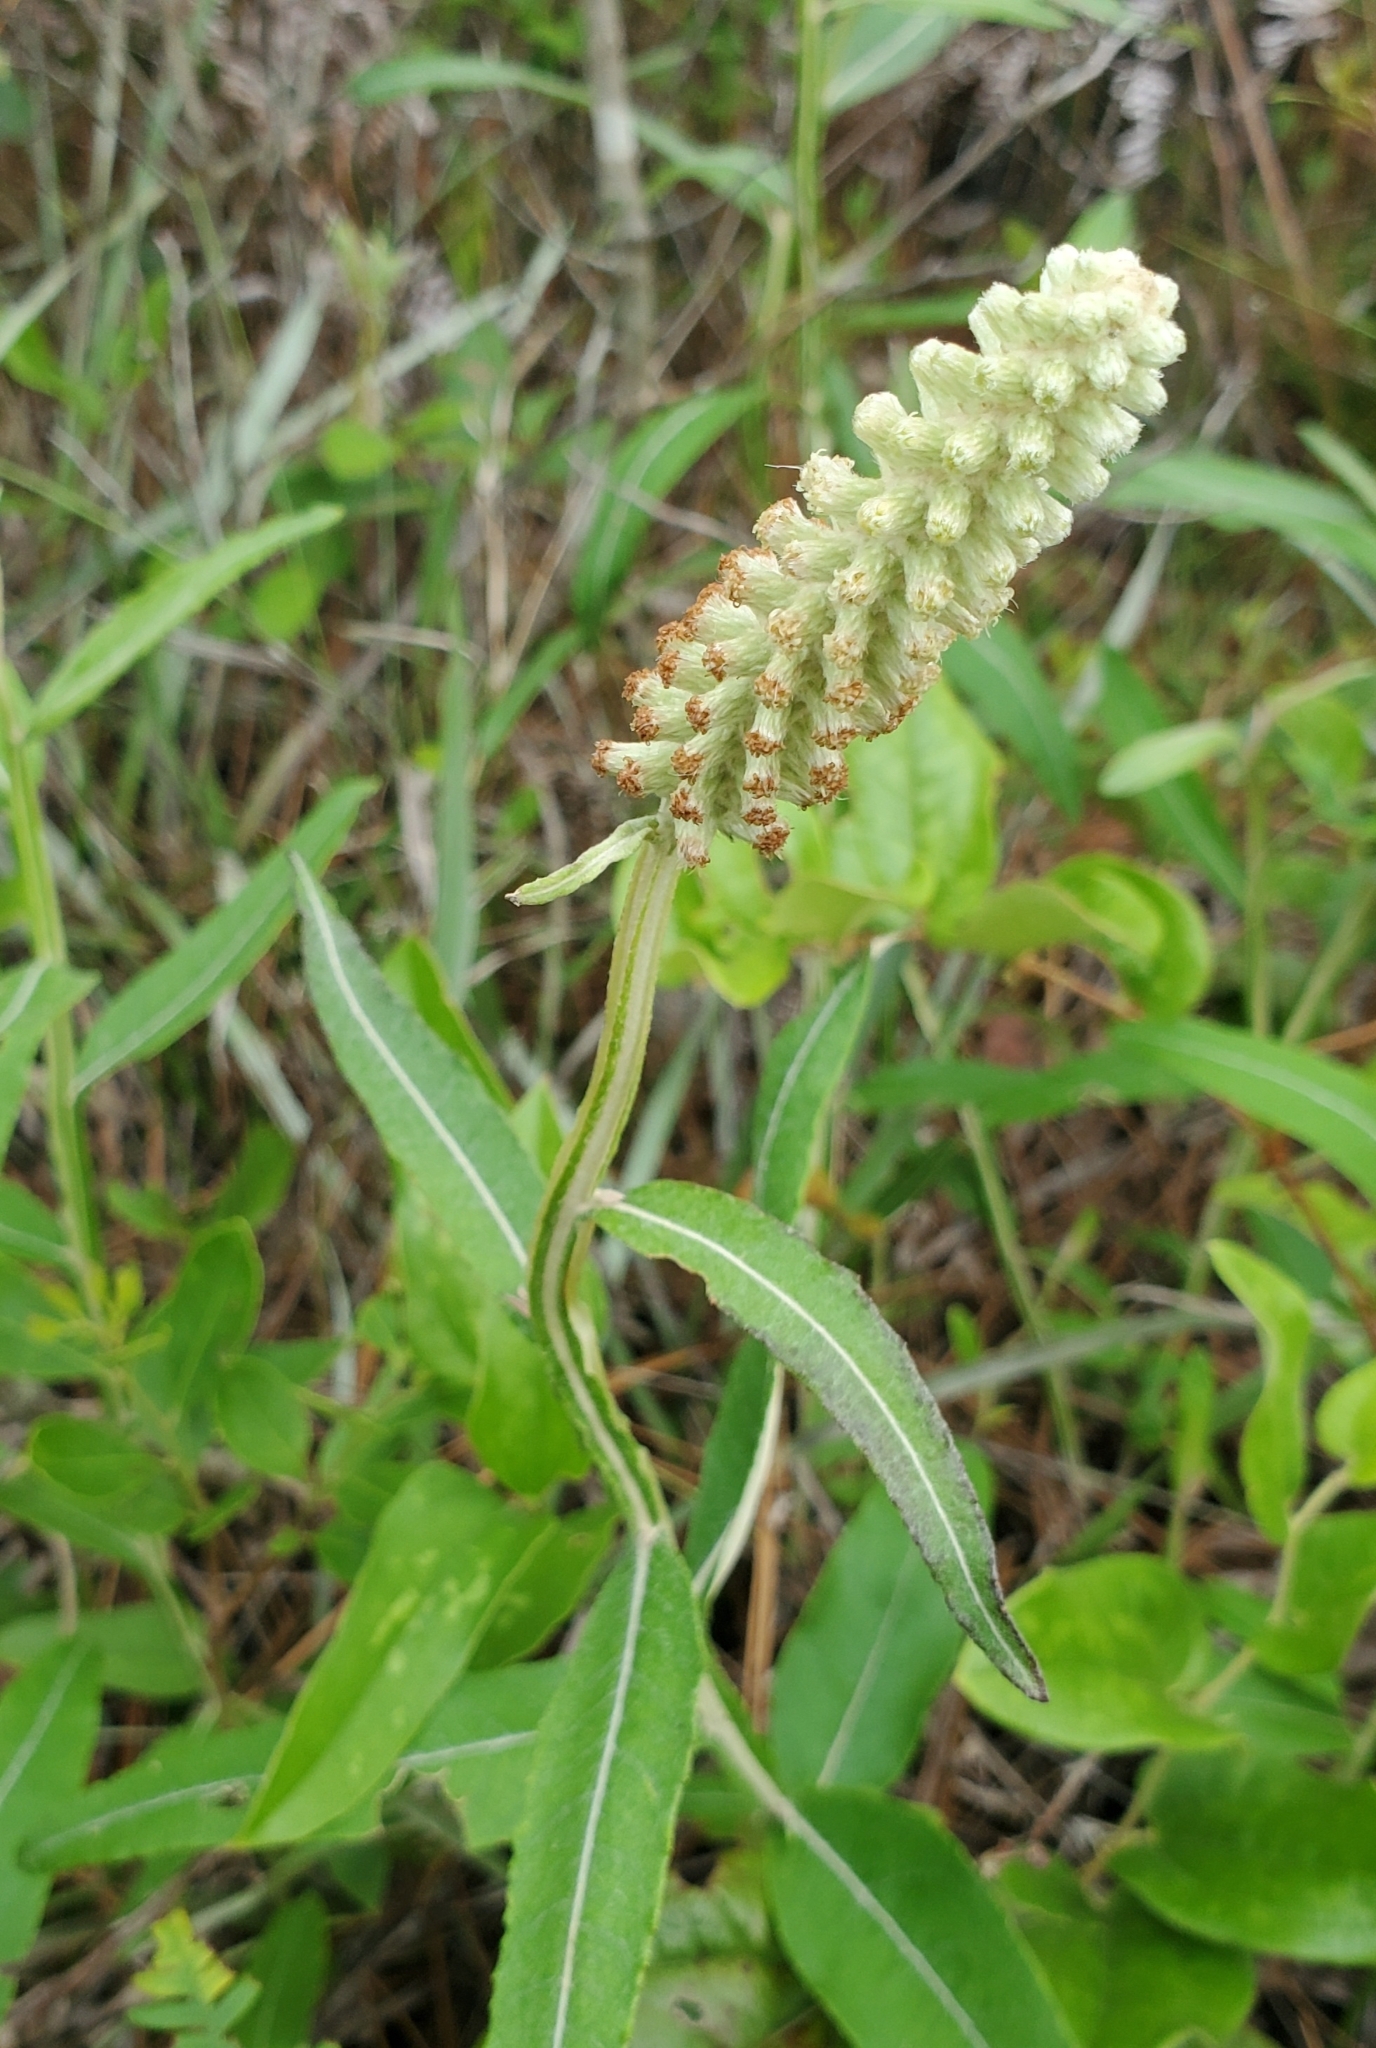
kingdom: Plantae
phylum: Tracheophyta
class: Magnoliopsida
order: Asterales
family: Asteraceae
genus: Pterocaulon
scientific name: Pterocaulon pycnostachyum
